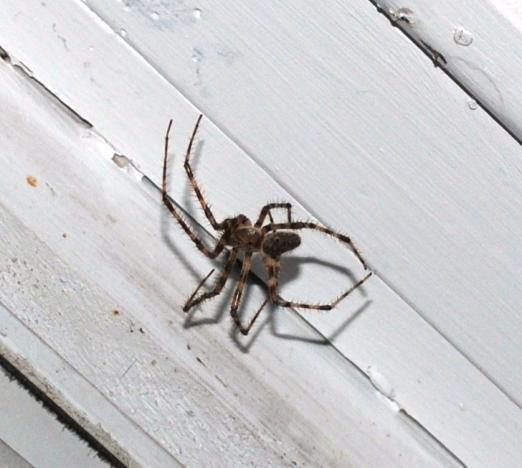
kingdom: Animalia
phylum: Arthropoda
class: Arachnida
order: Araneae
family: Araneidae
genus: Araneus
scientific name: Araneus cavaticus
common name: Barn orbweaver
